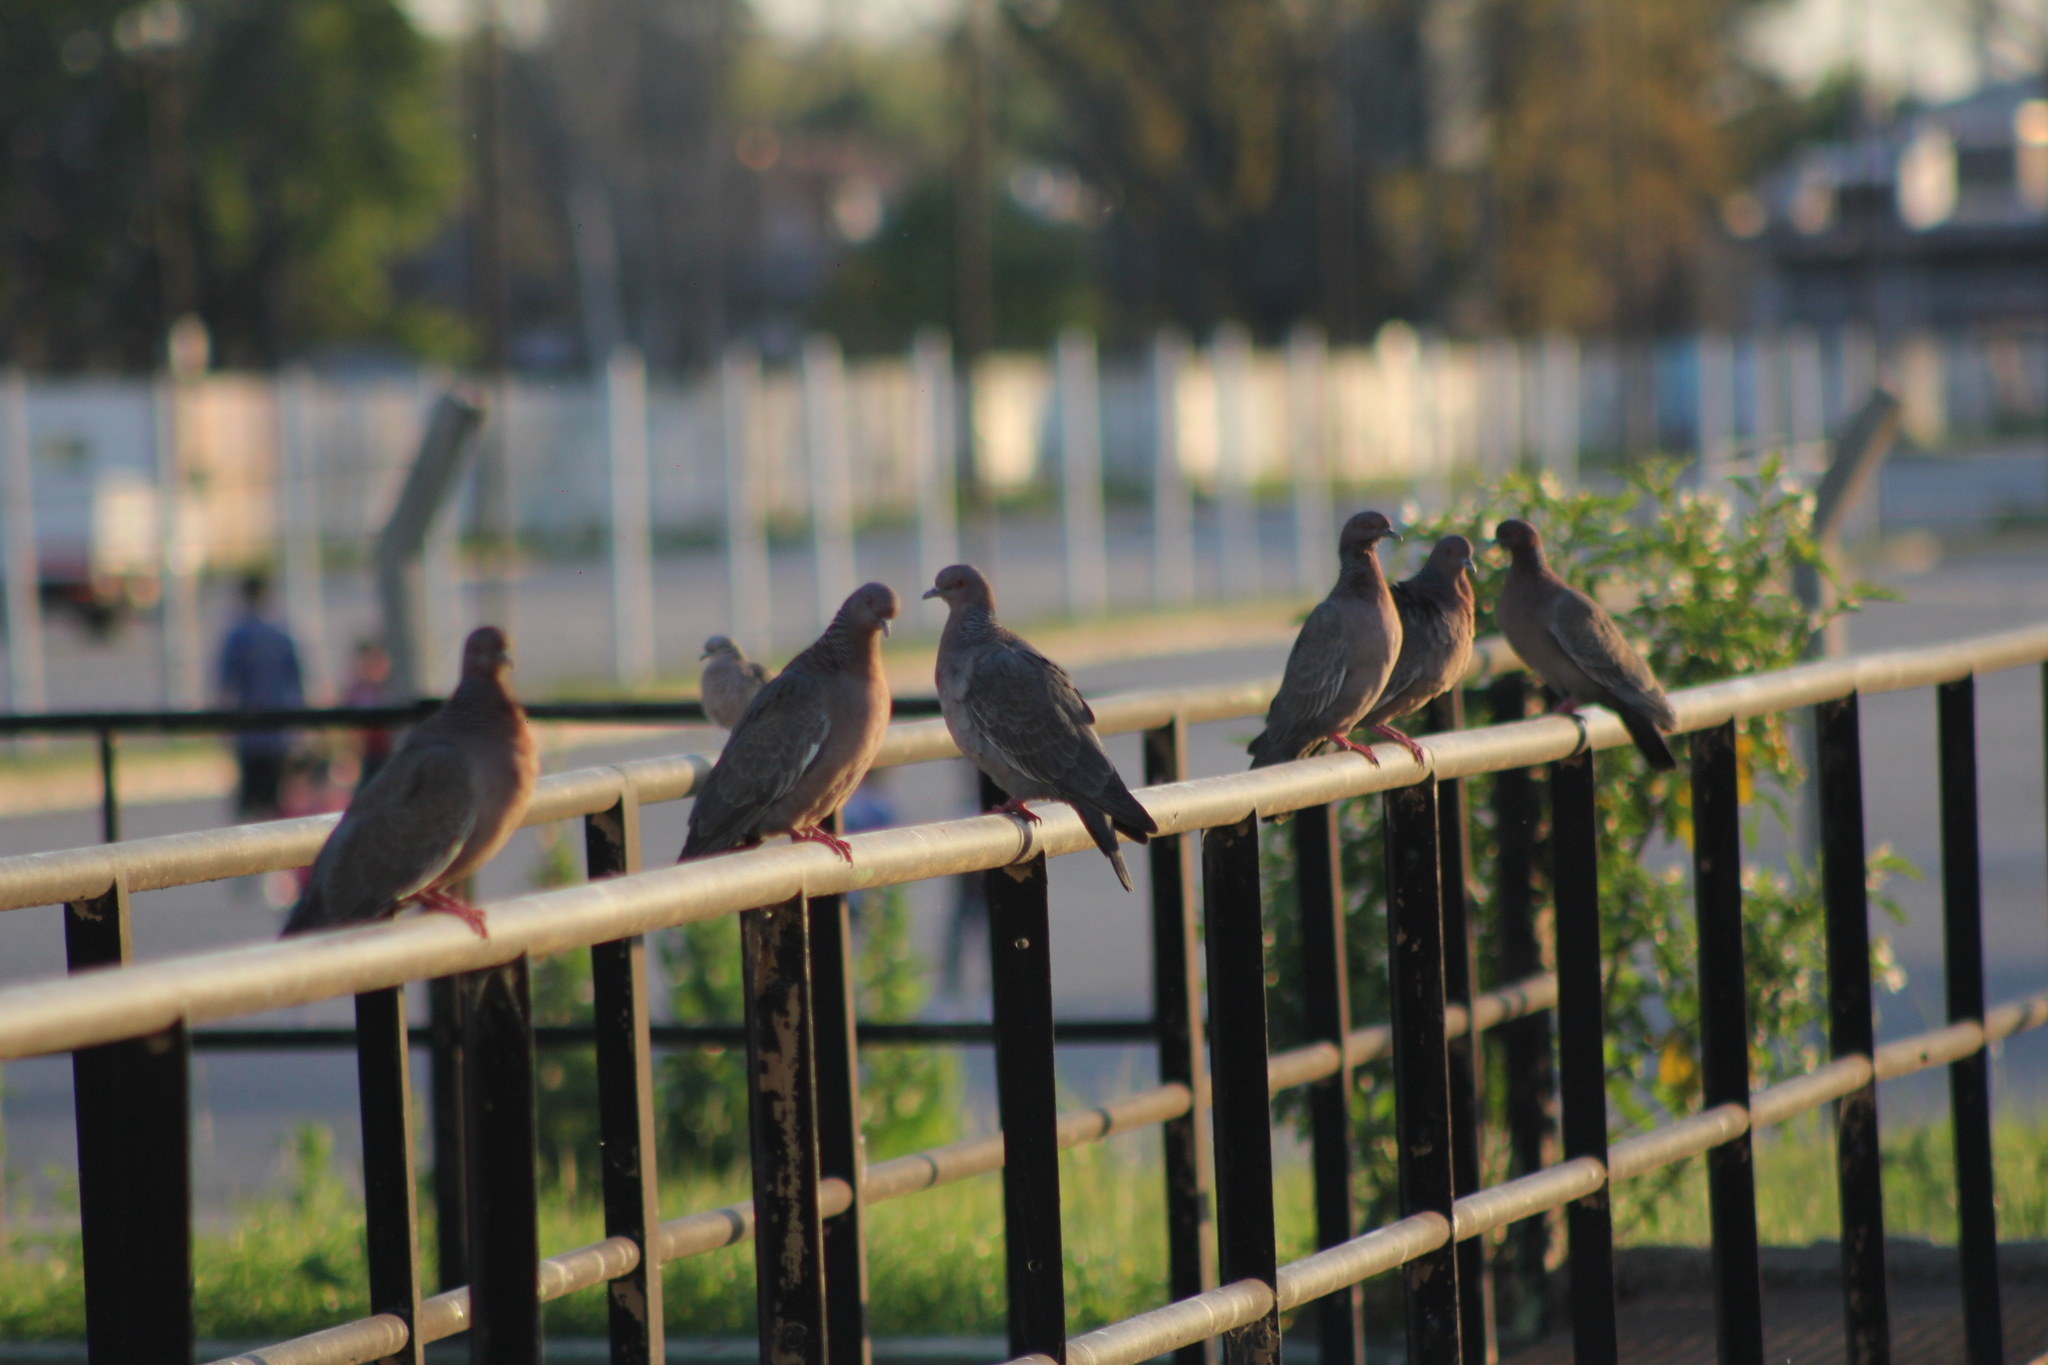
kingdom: Animalia
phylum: Chordata
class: Aves
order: Columbiformes
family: Columbidae
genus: Patagioenas
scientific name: Patagioenas picazuro
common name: Picazuro pigeon
